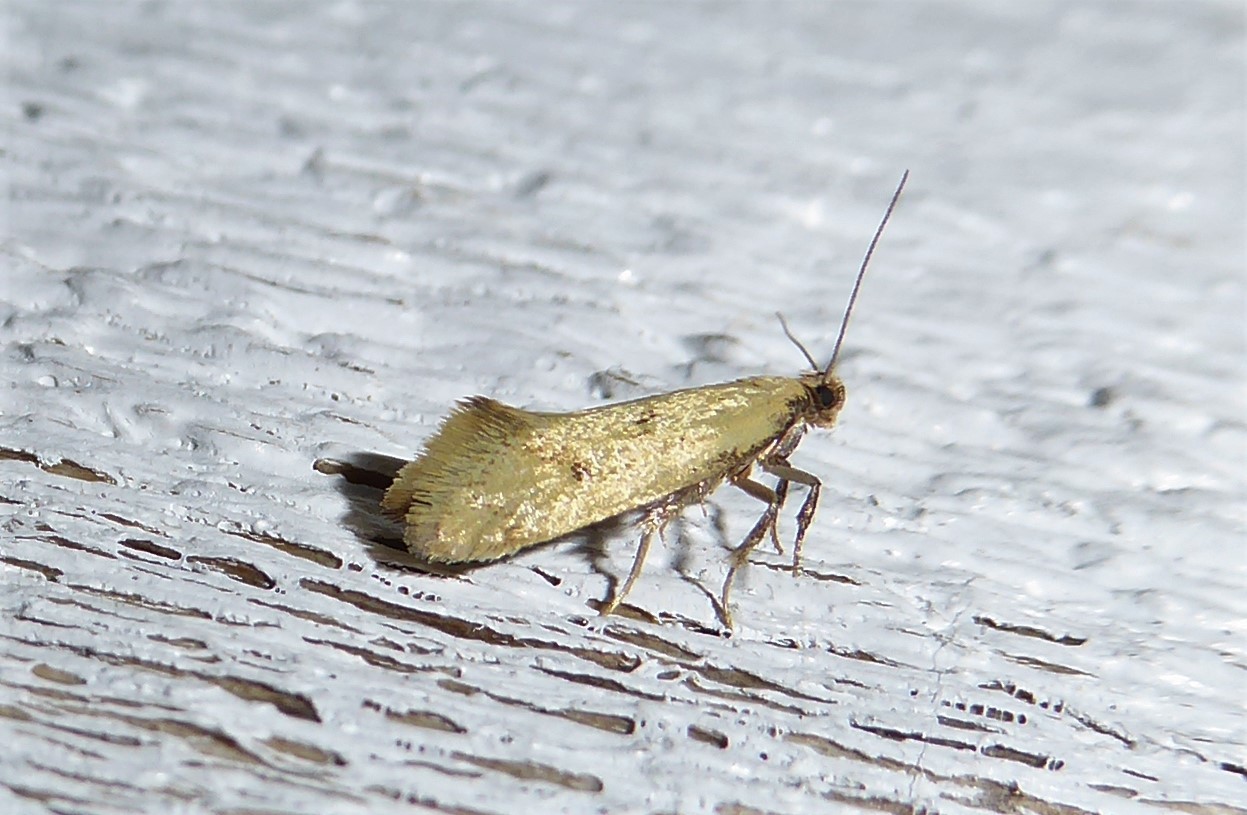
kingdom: Animalia
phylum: Arthropoda
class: Insecta
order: Lepidoptera
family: Oecophoridae
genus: Tingena
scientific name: Tingena actinias
